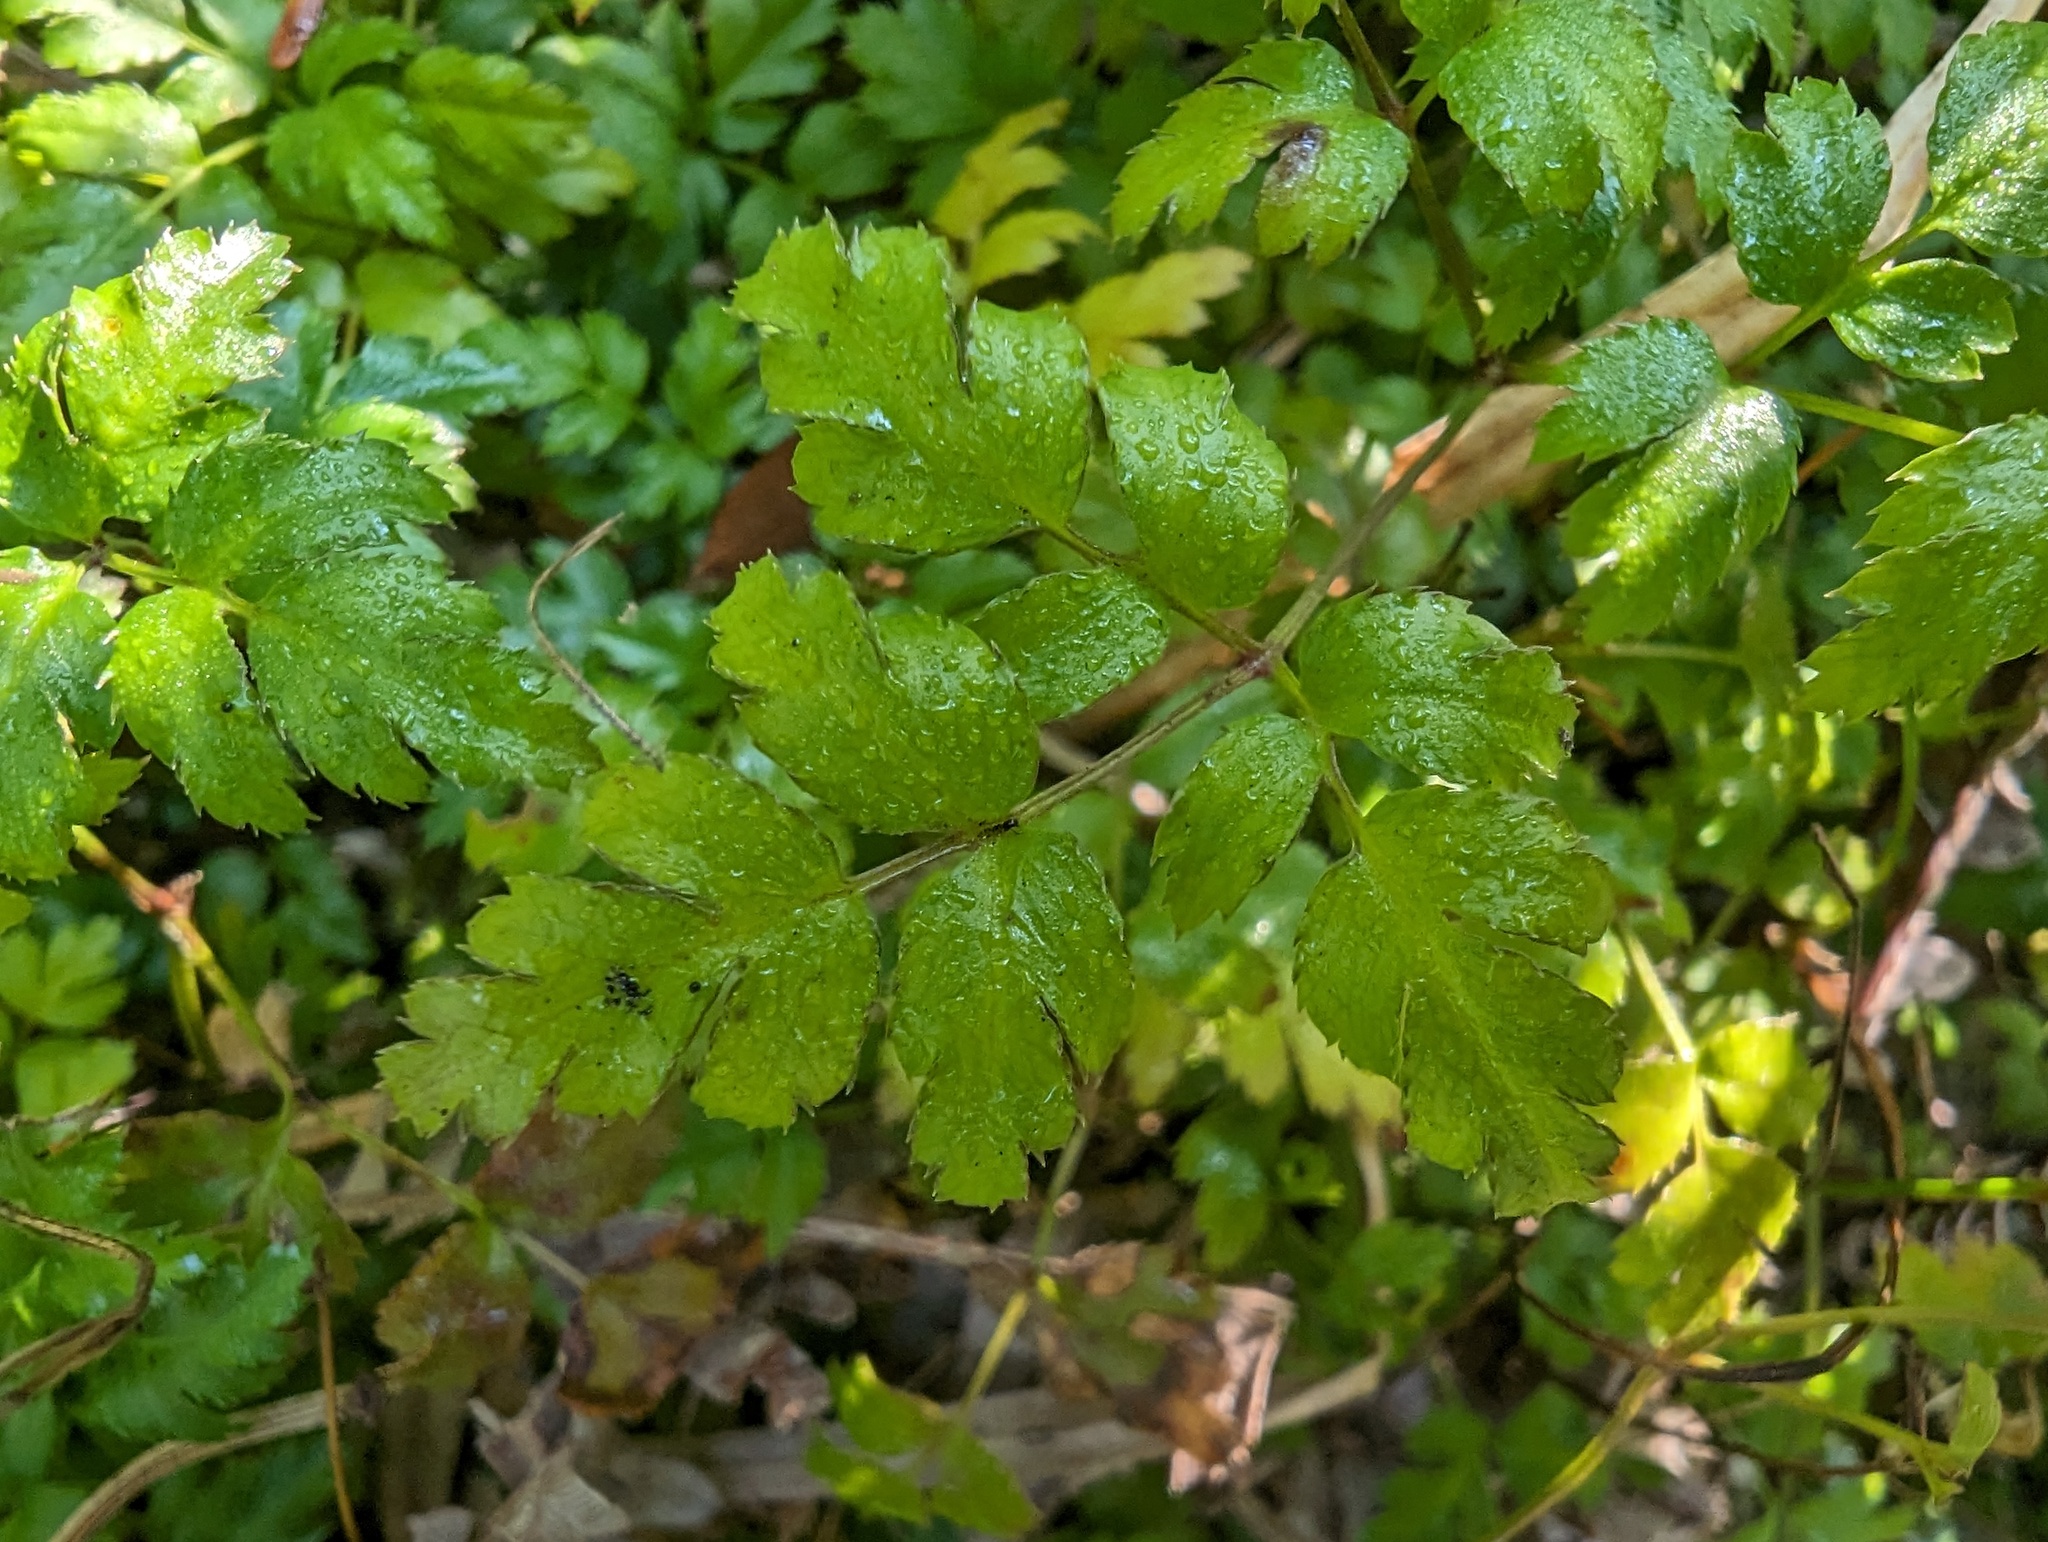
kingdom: Plantae
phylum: Tracheophyta
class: Magnoliopsida
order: Ranunculales
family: Ranunculaceae
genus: Coptis
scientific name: Coptis aspleniifolia
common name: Fern-leaved goldthread
